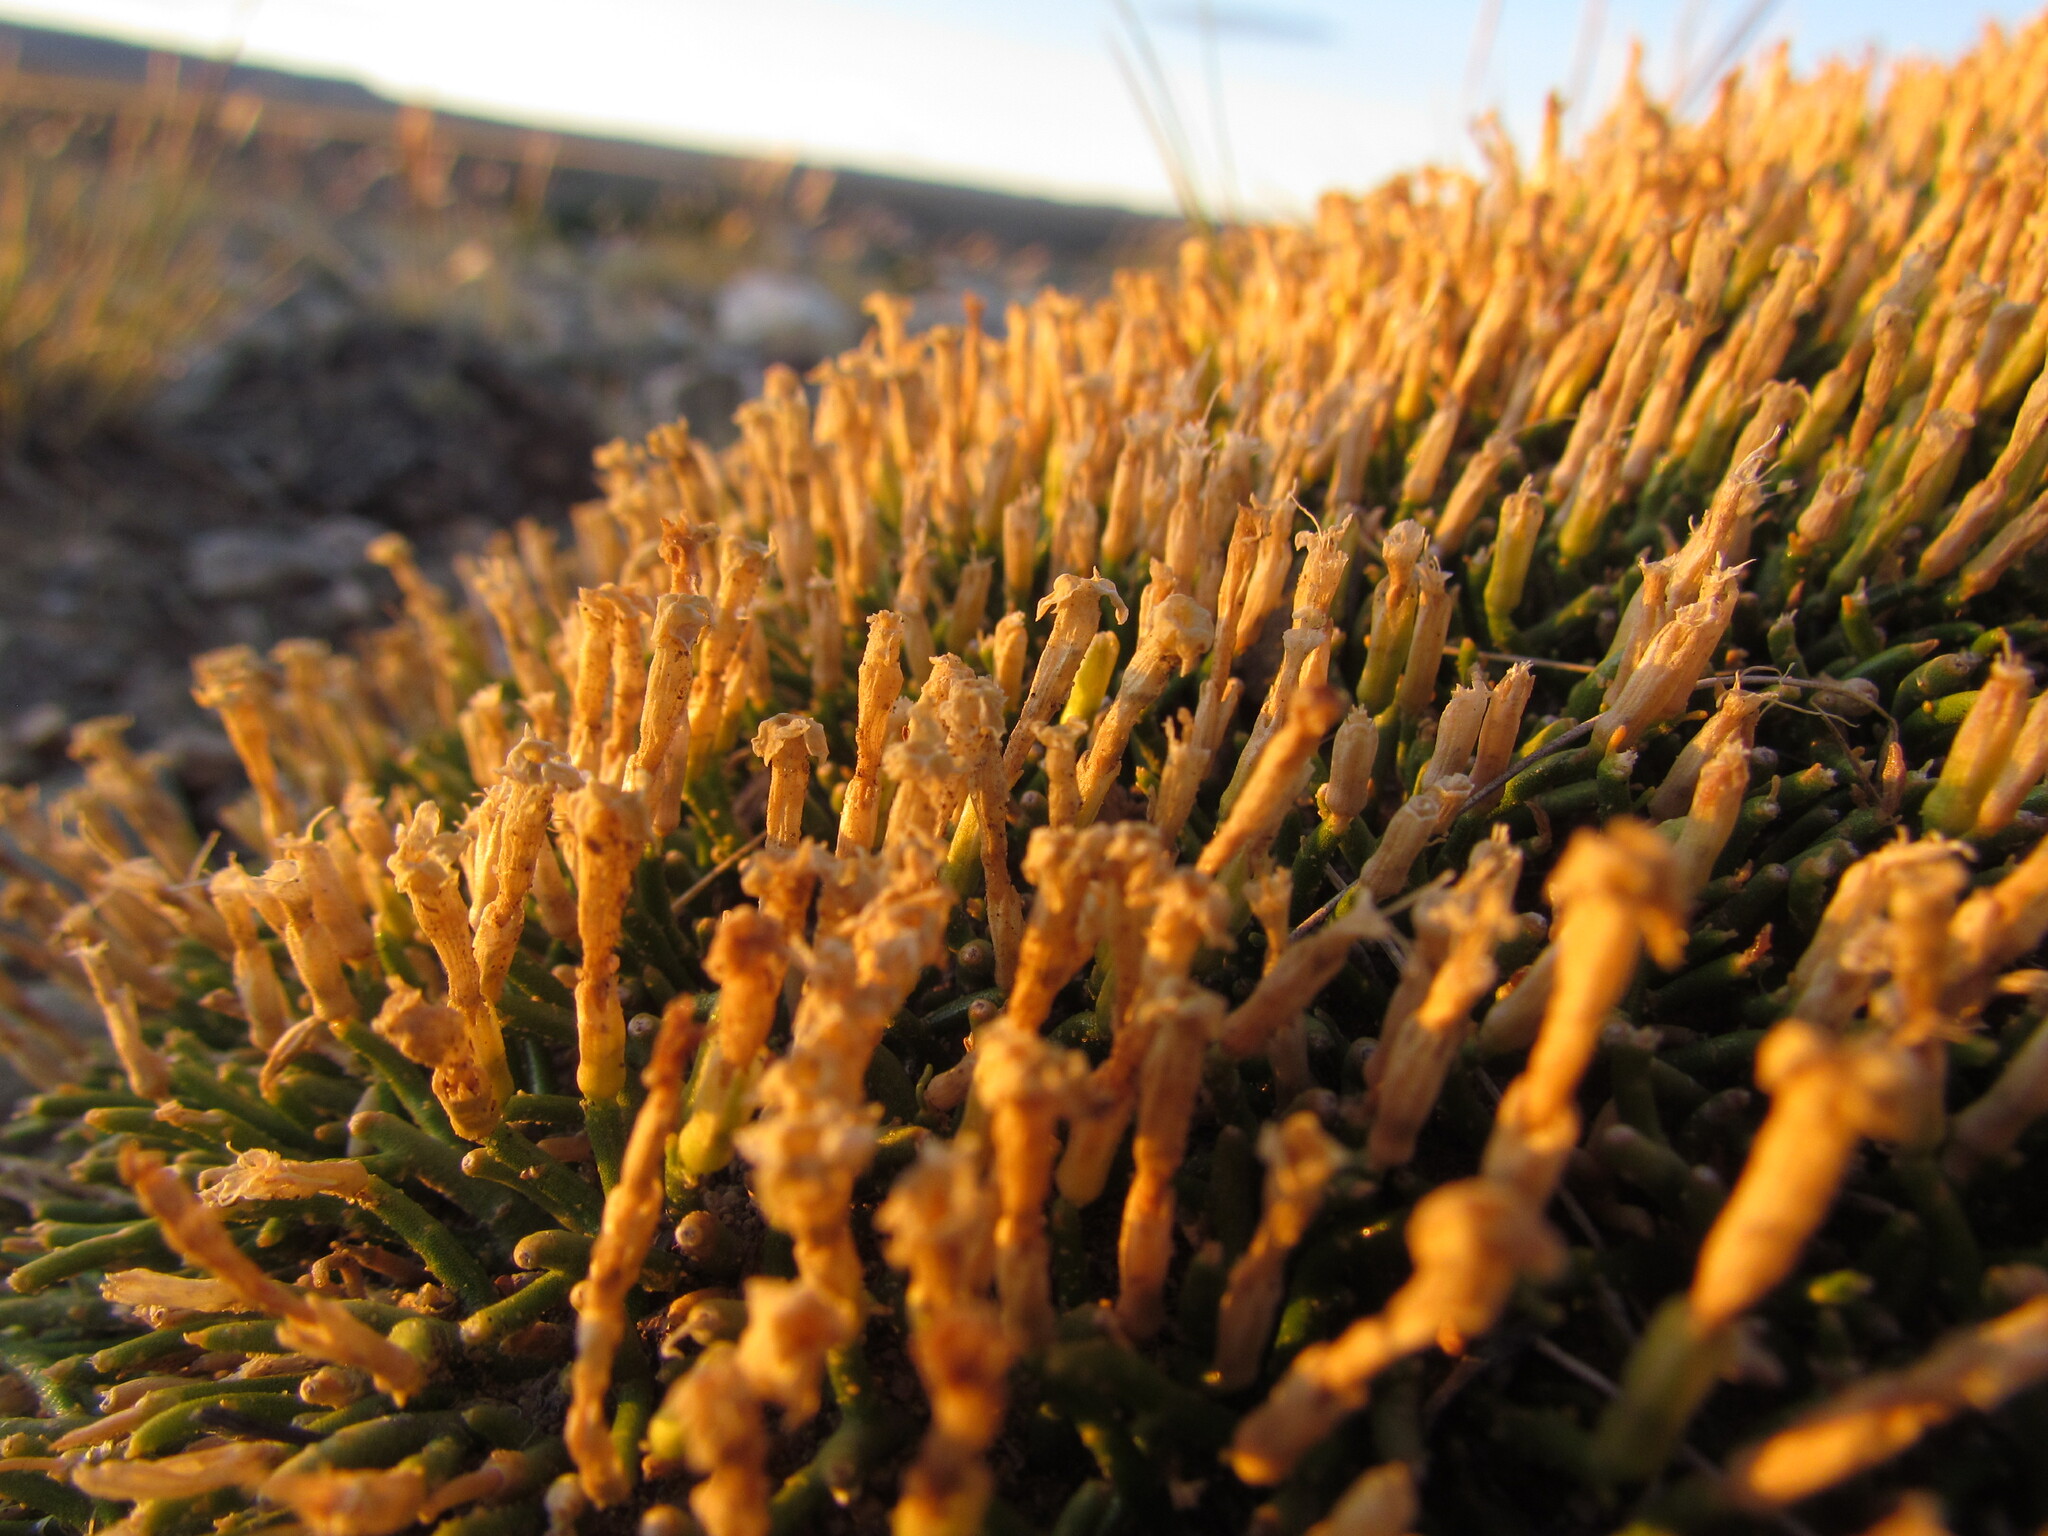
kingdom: Plantae
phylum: Tracheophyta
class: Magnoliopsida
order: Solanales
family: Solanaceae
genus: Fabiana
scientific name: Fabiana nana
